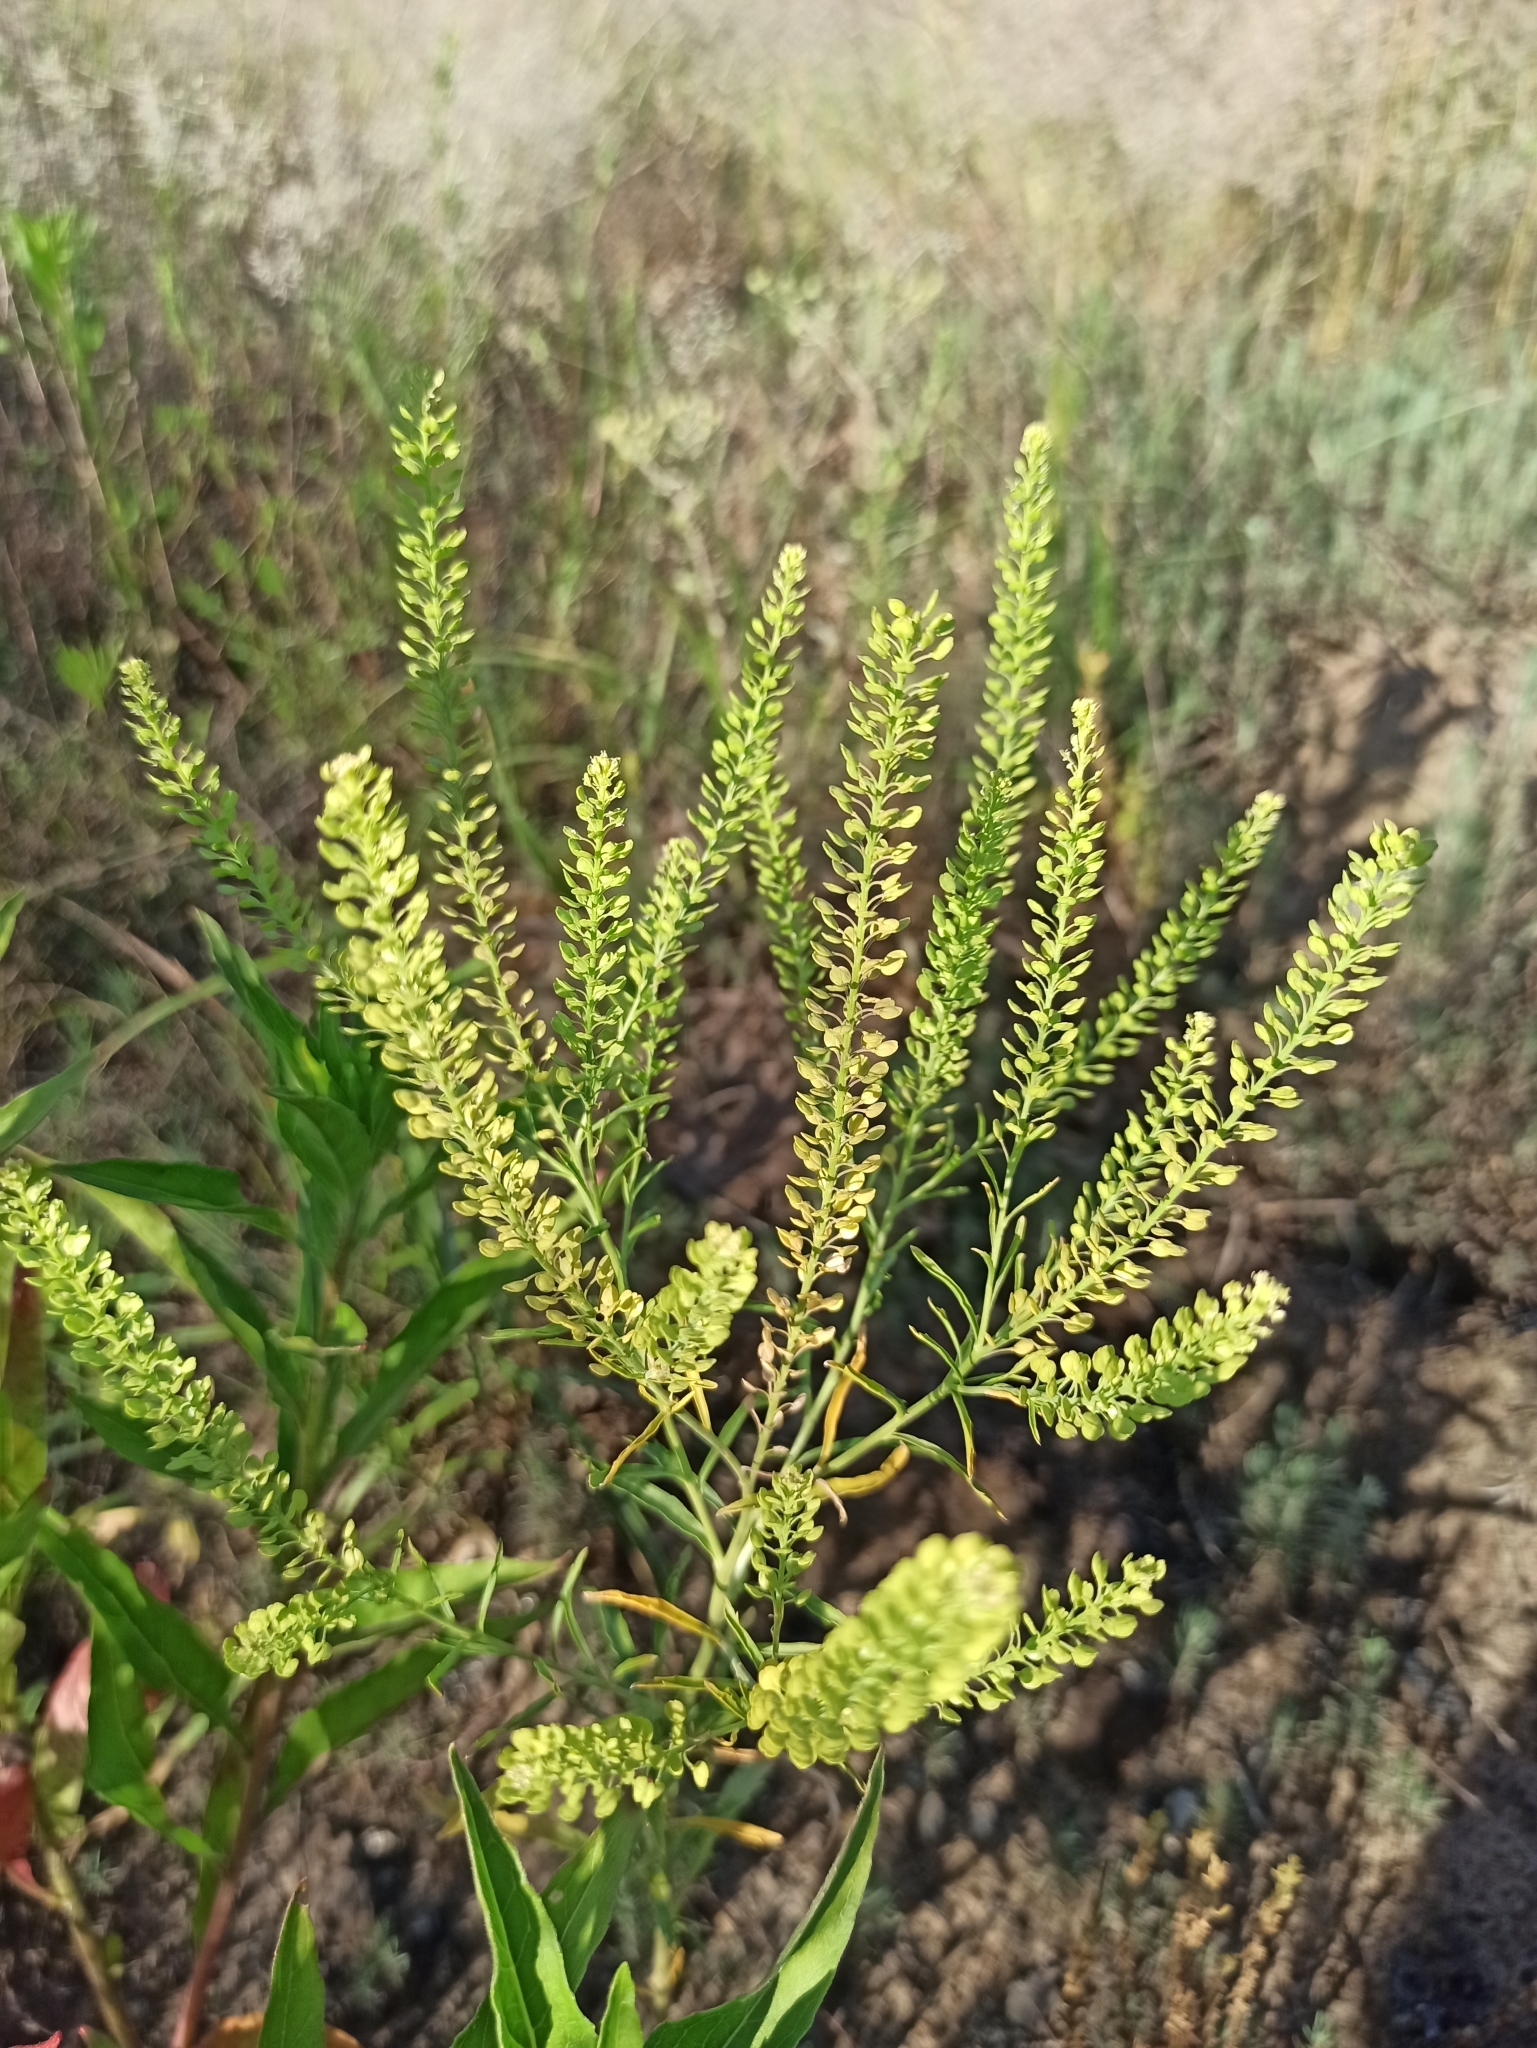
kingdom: Plantae
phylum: Tracheophyta
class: Magnoliopsida
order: Brassicales
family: Brassicaceae
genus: Lepidium
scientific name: Lepidium densiflorum
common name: Miner's pepperwort
